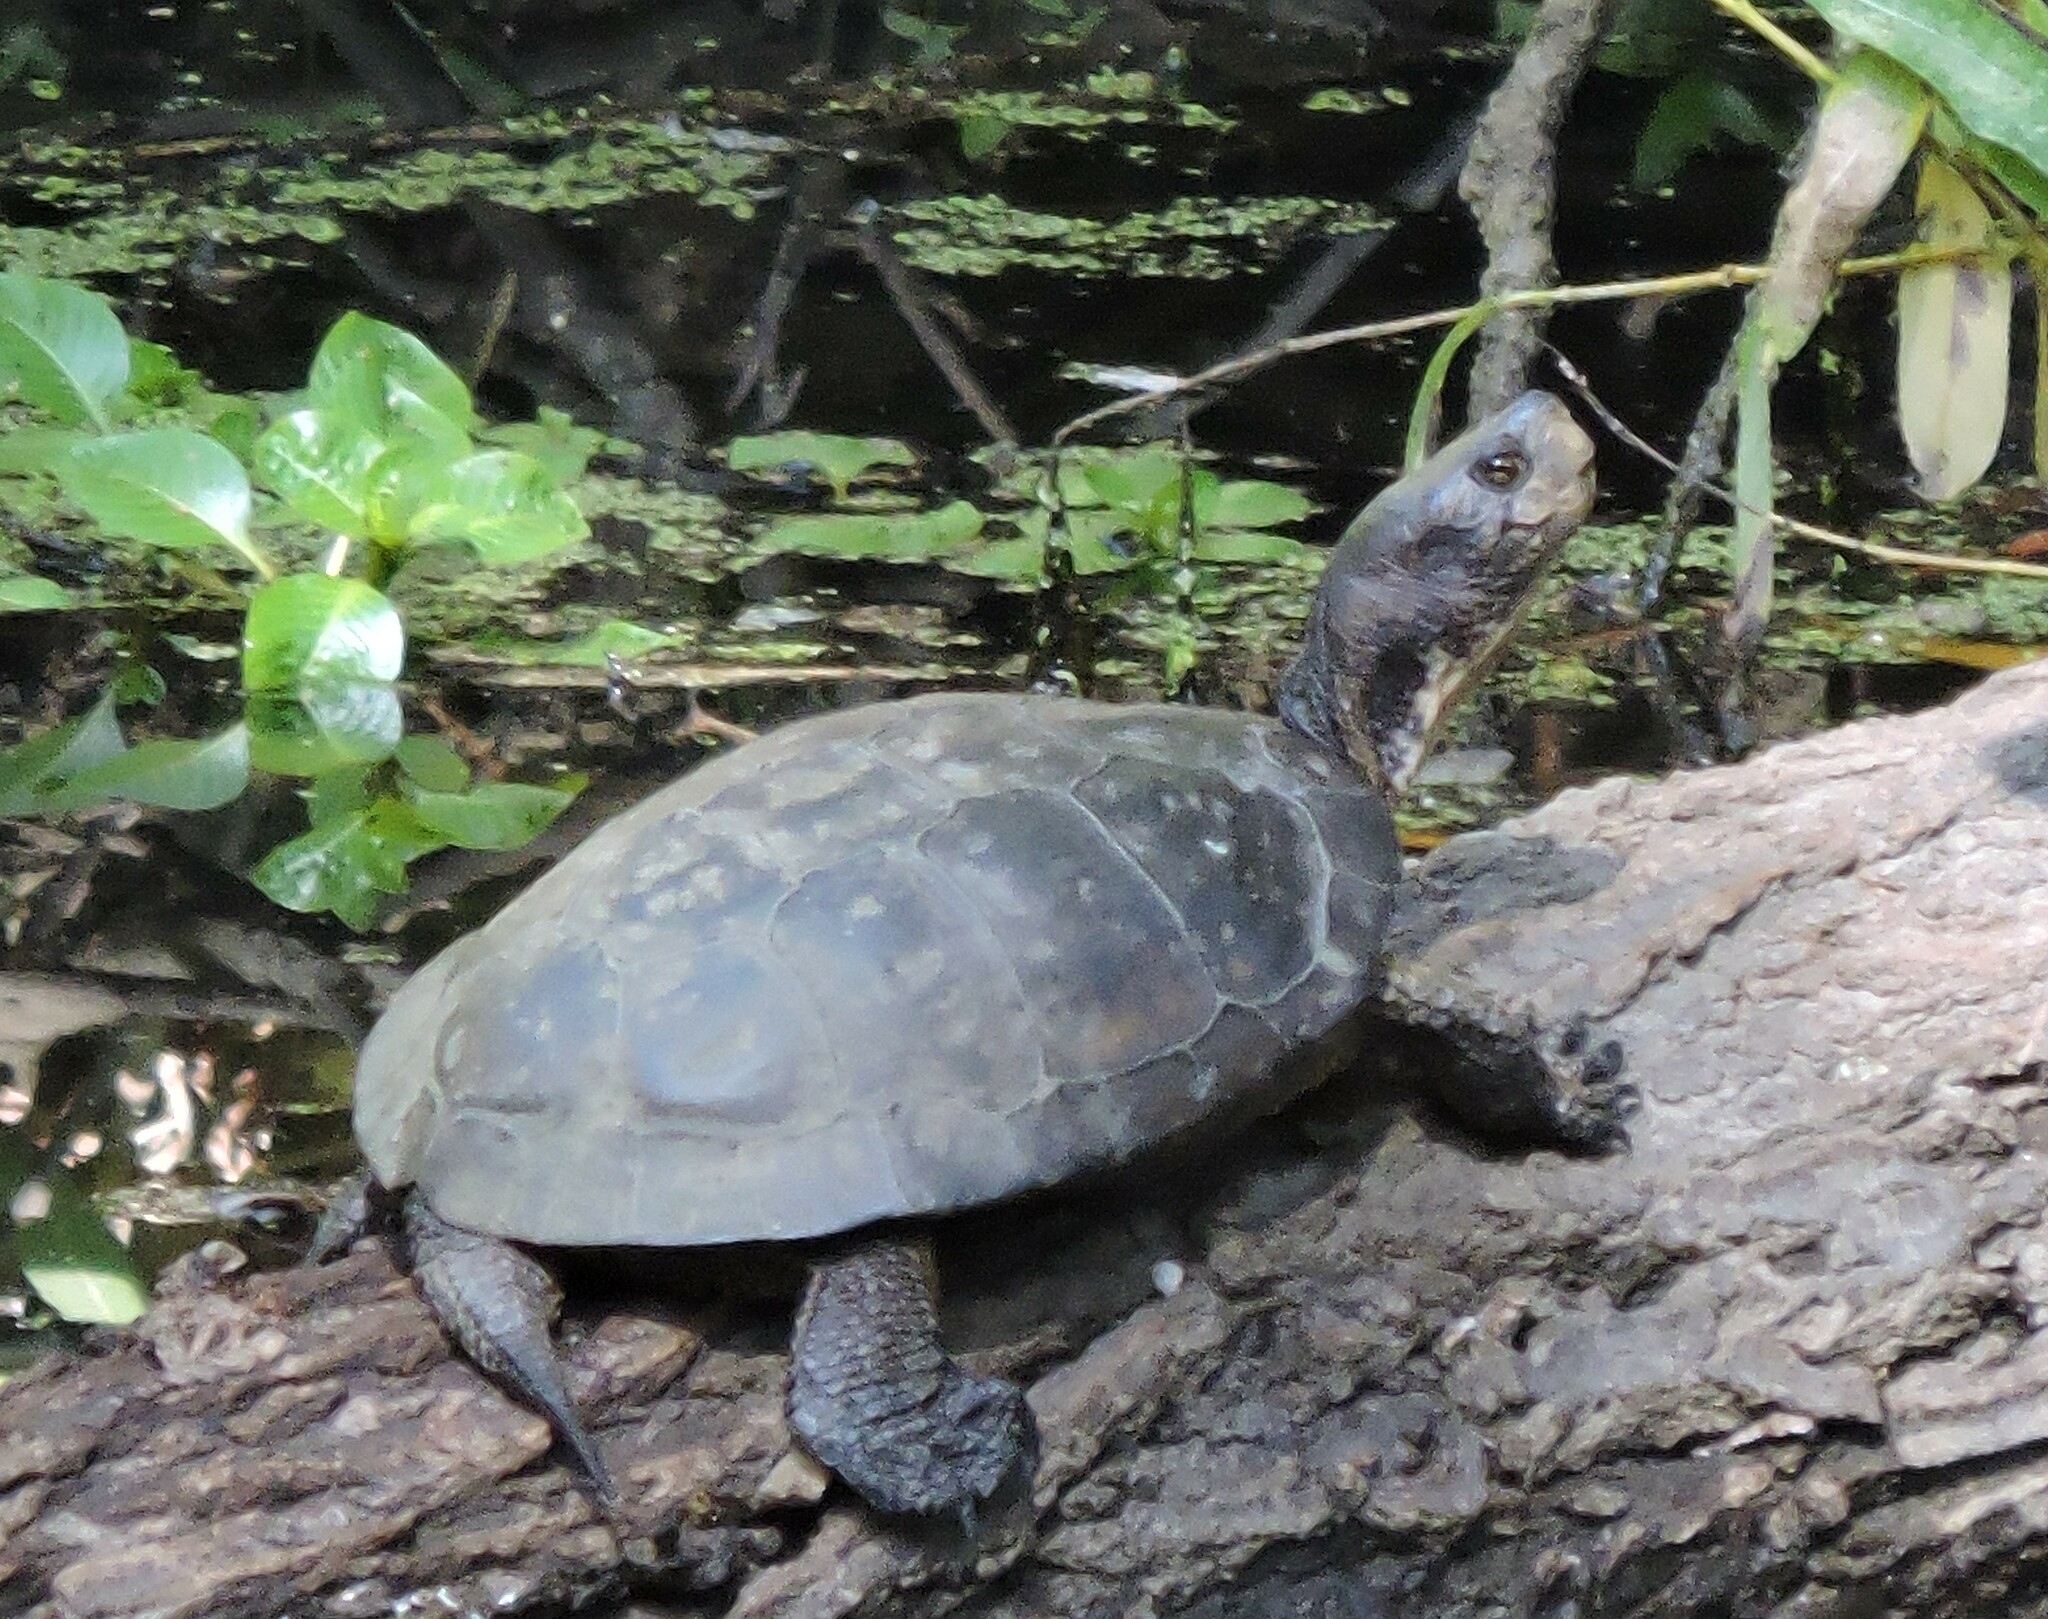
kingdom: Animalia
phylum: Chordata
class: Testudines
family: Emydidae
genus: Actinemys
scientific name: Actinemys marmorata
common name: Western pond turtle
